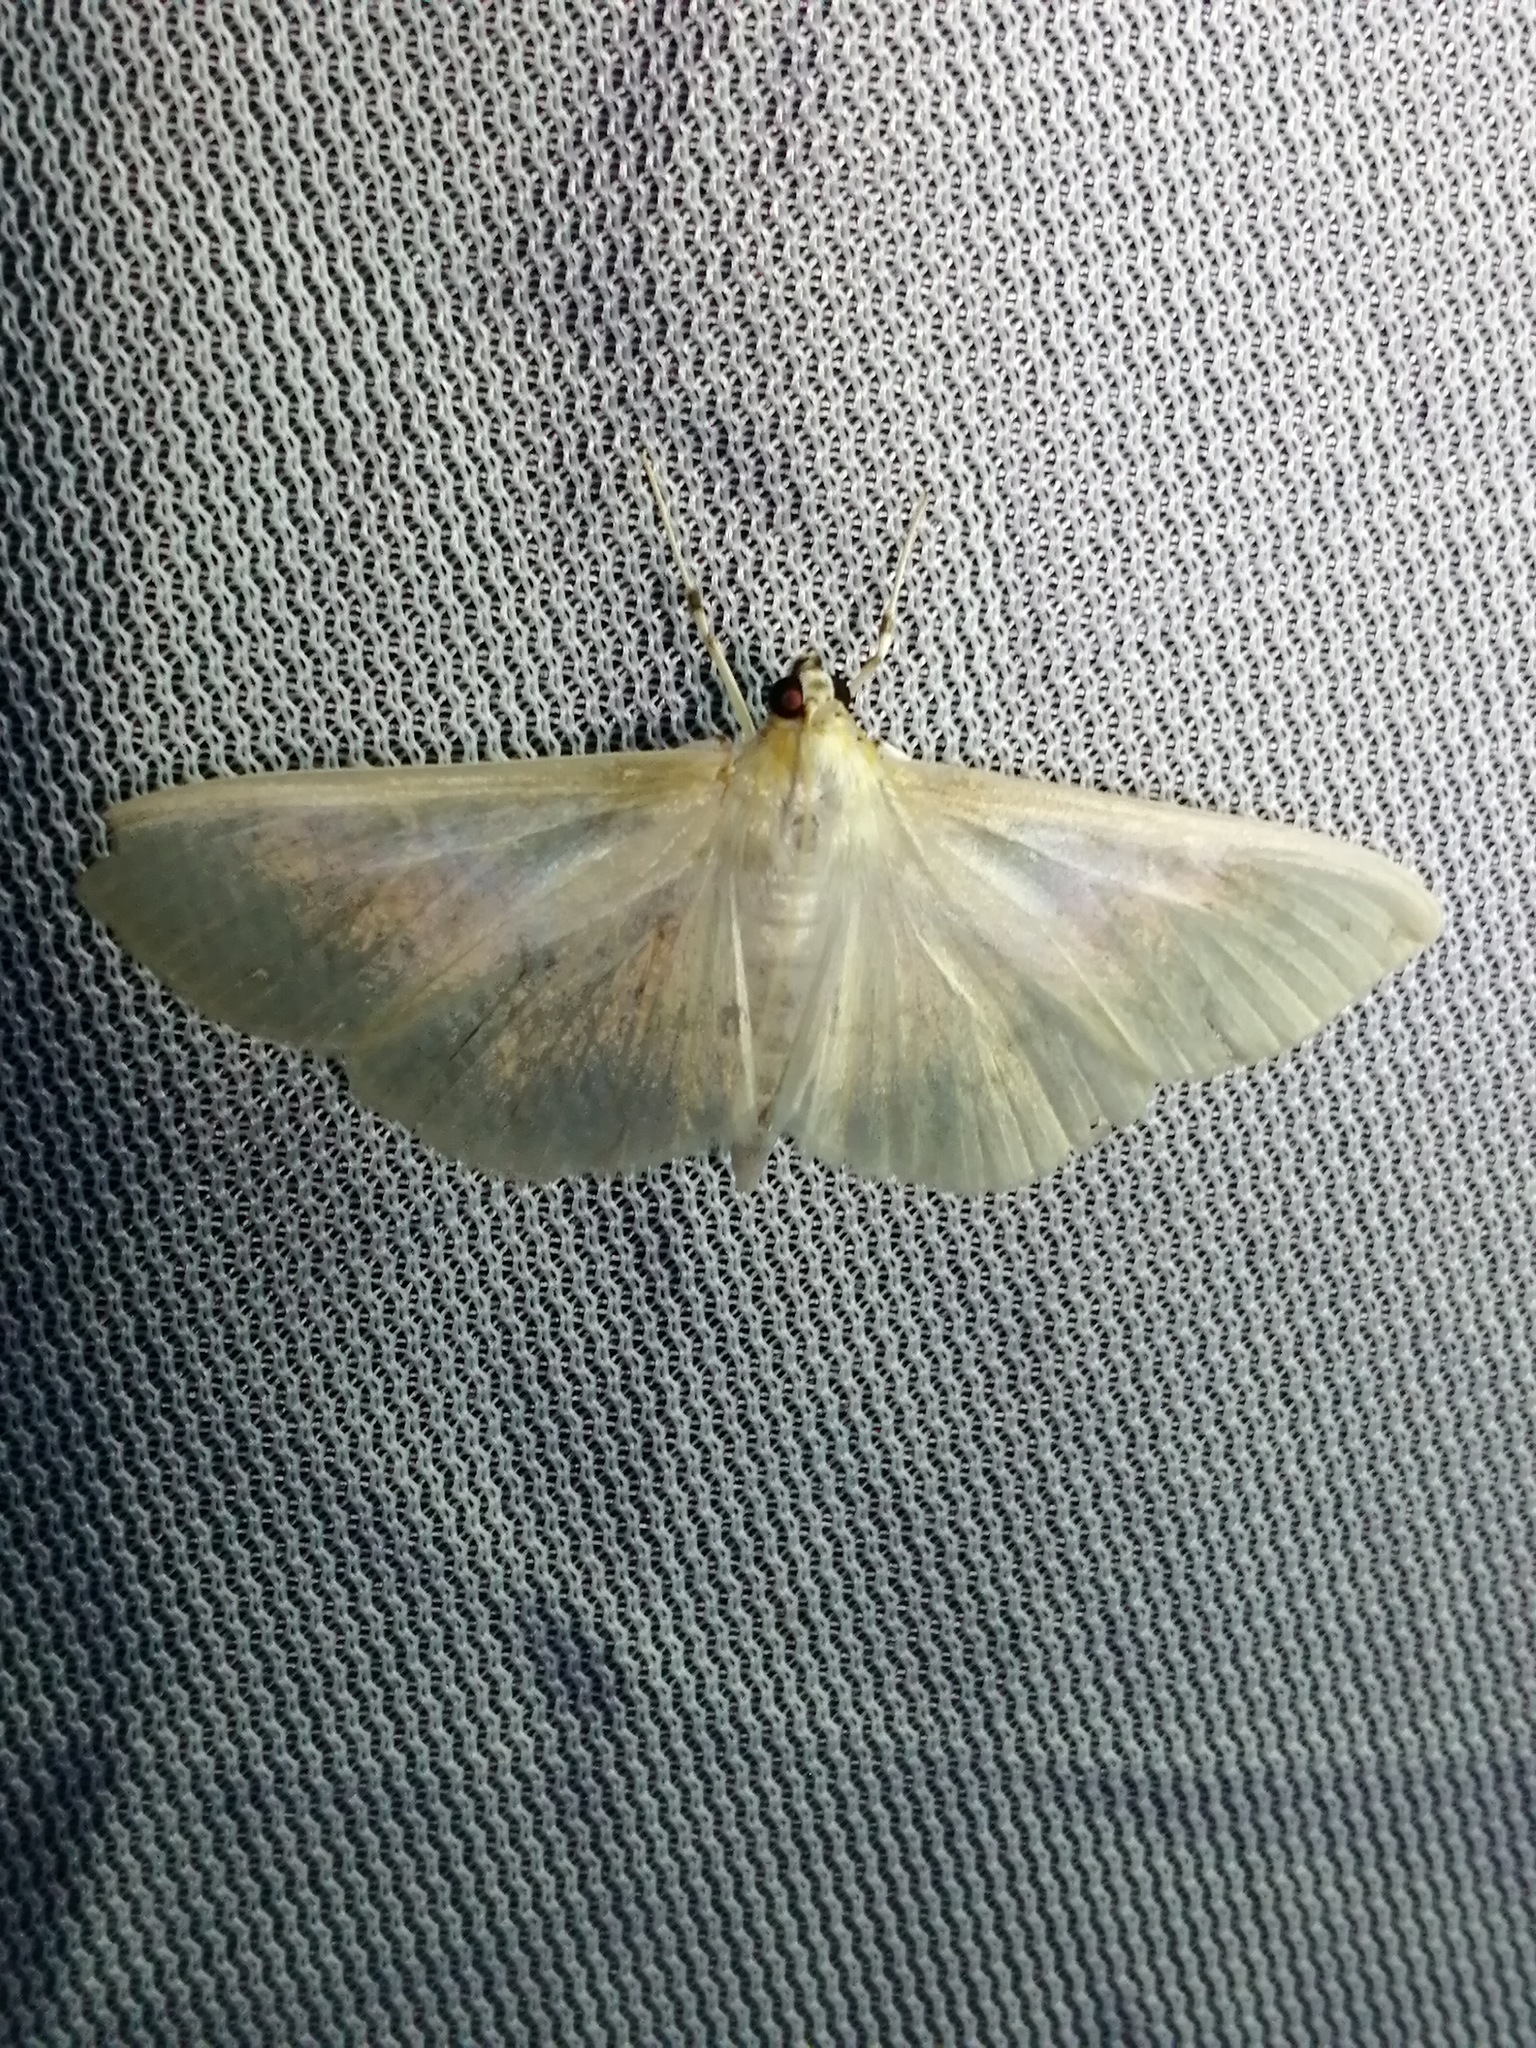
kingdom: Animalia
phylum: Arthropoda
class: Insecta
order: Lepidoptera
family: Crambidae
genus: Palpita
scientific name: Palpita flegia
